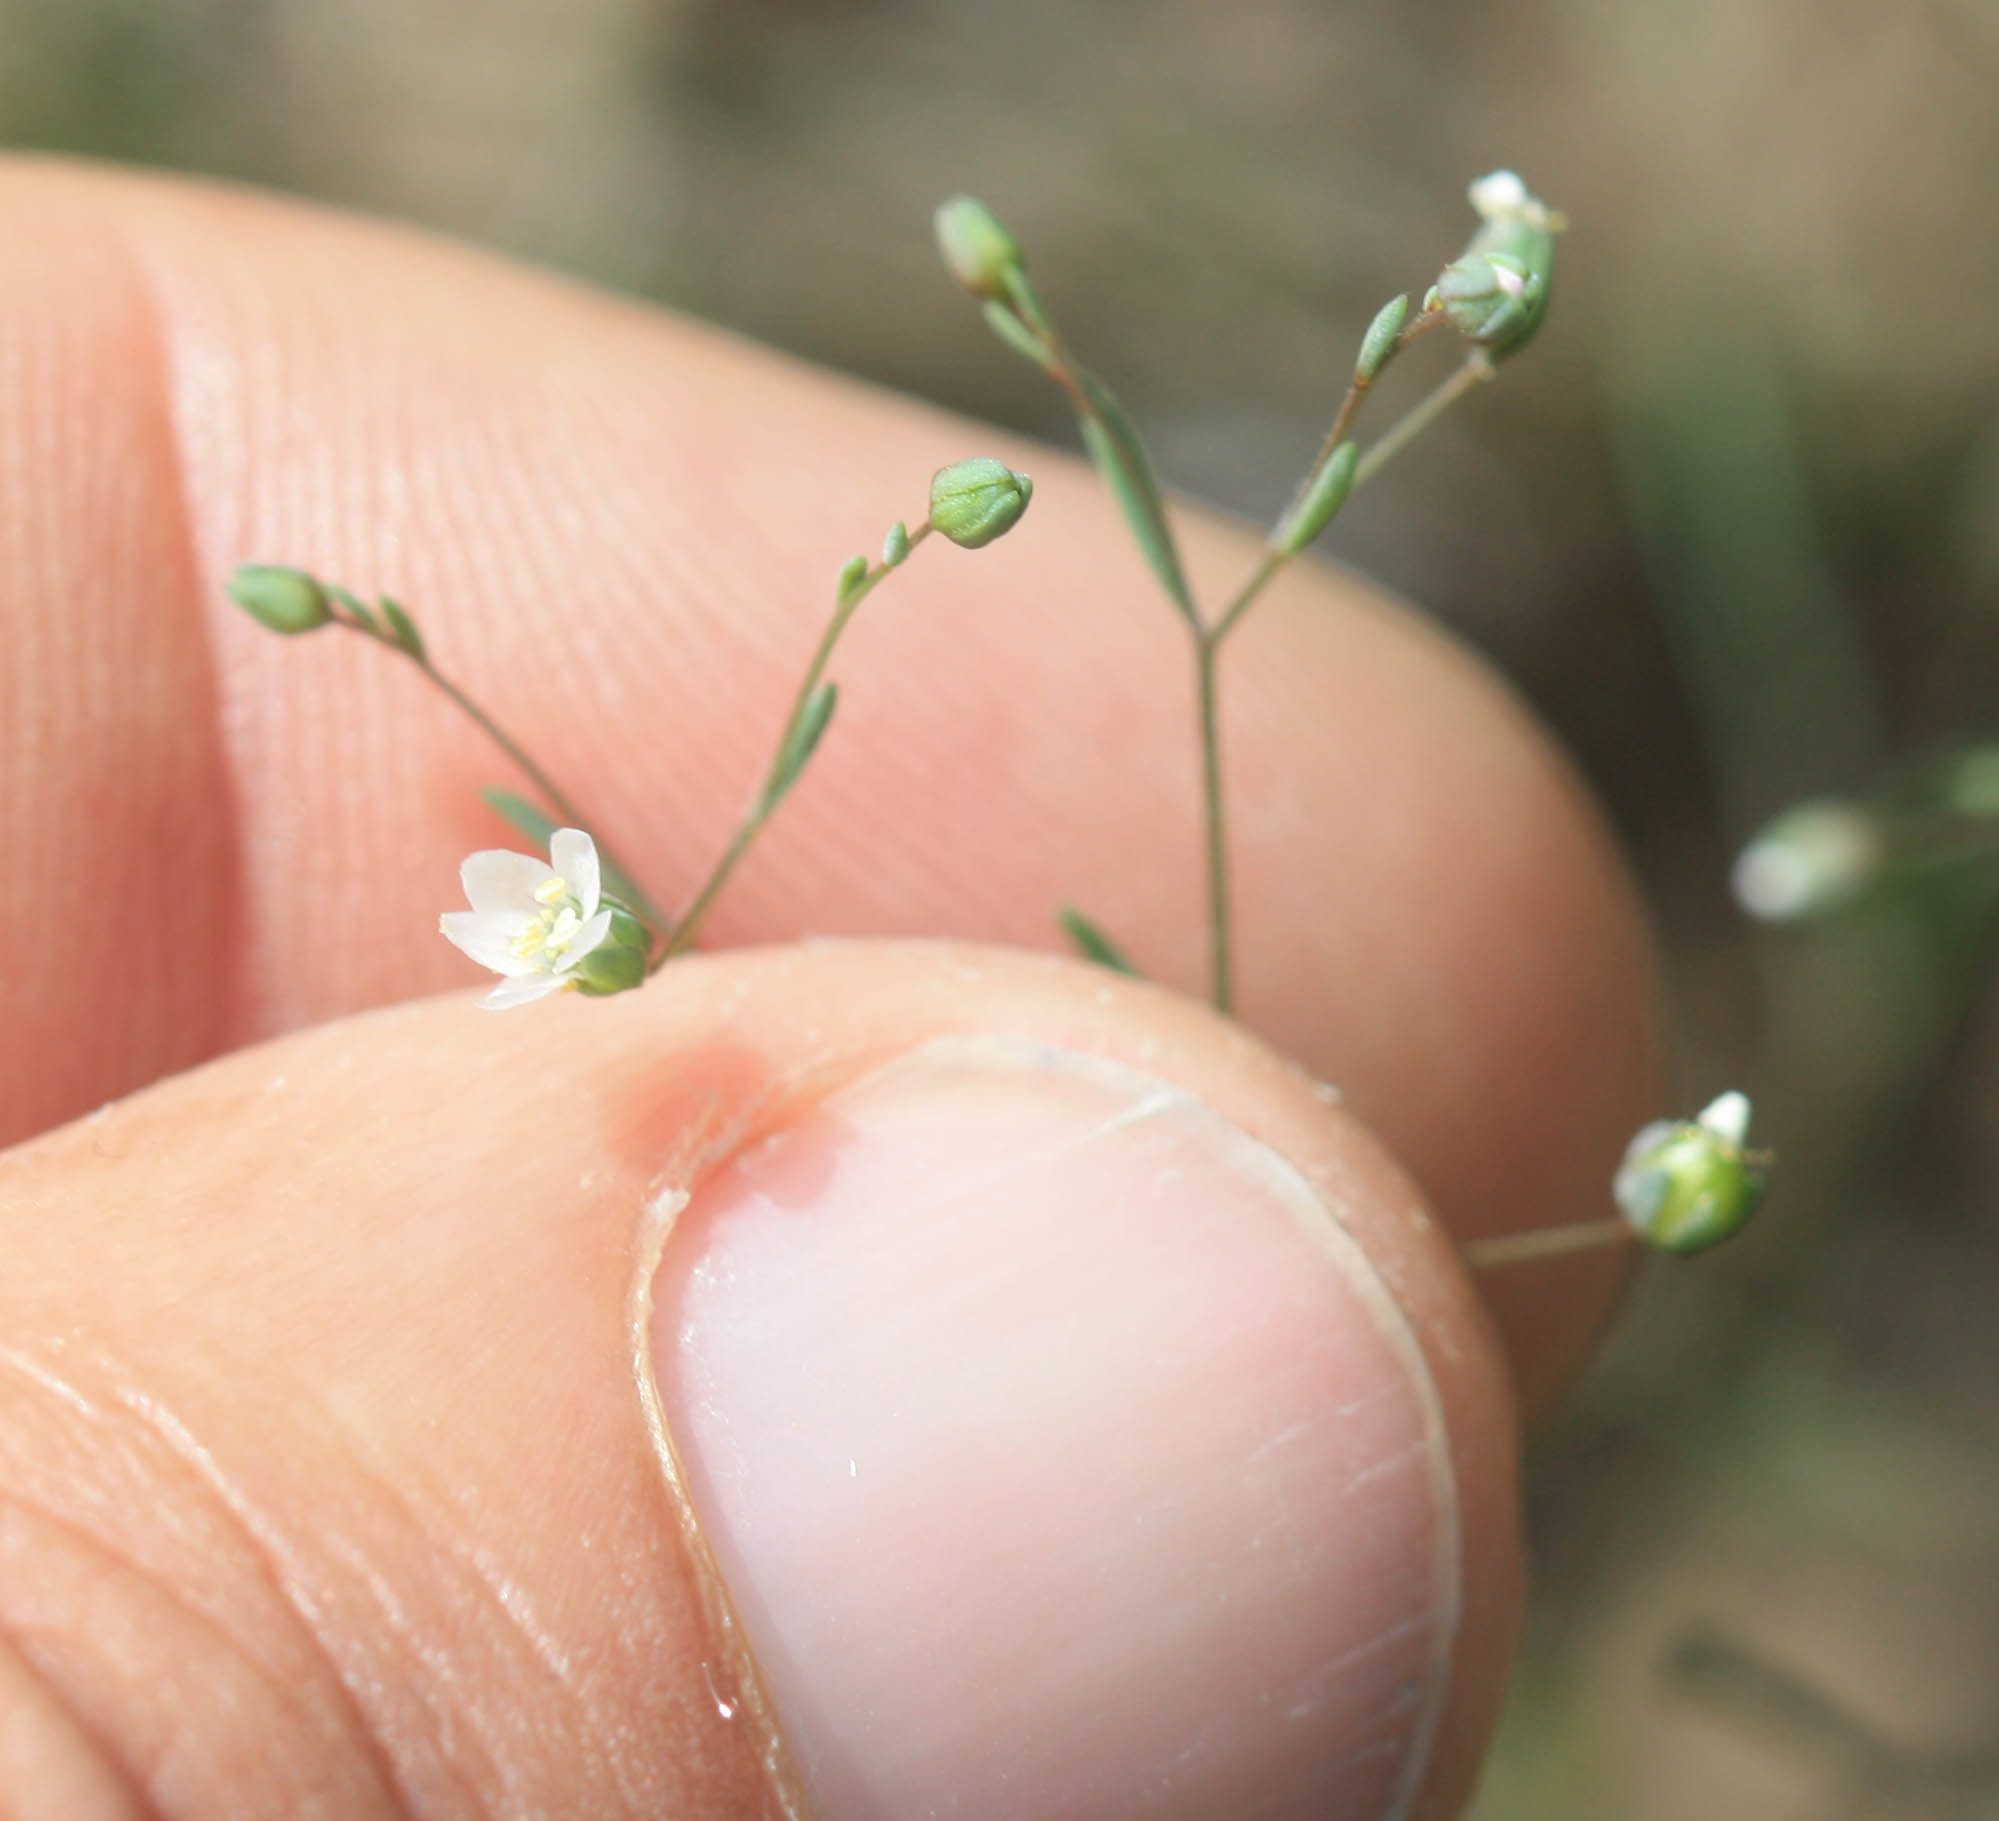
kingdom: Plantae
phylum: Tracheophyta
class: Magnoliopsida
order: Malpighiales
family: Linaceae
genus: Hesperolinon
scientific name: Hesperolinon micranthum
